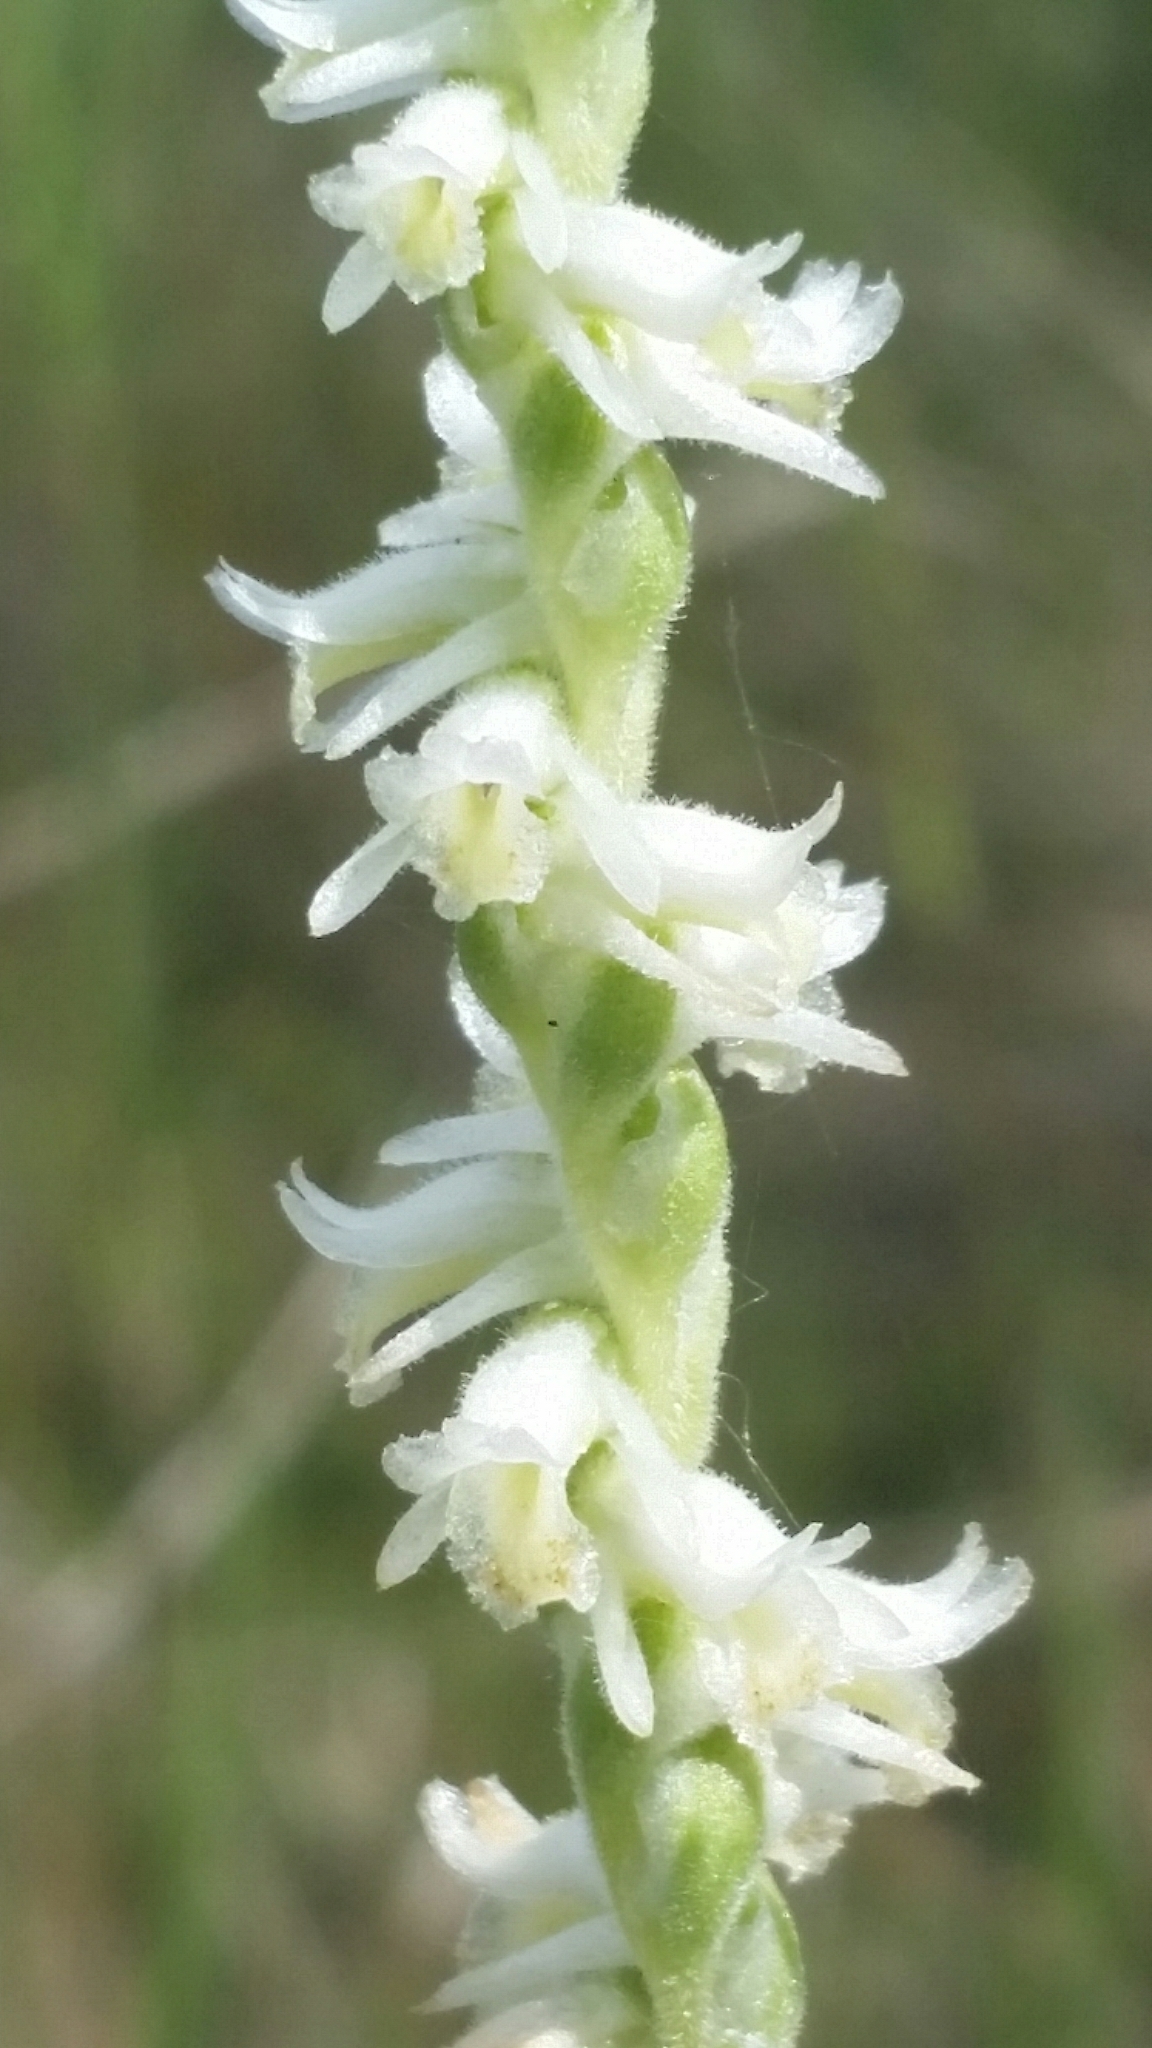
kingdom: Plantae
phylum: Tracheophyta
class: Liliopsida
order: Asparagales
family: Orchidaceae
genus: Spiranthes
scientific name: Spiranthes vernalis
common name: Spring ladies'-tresses
